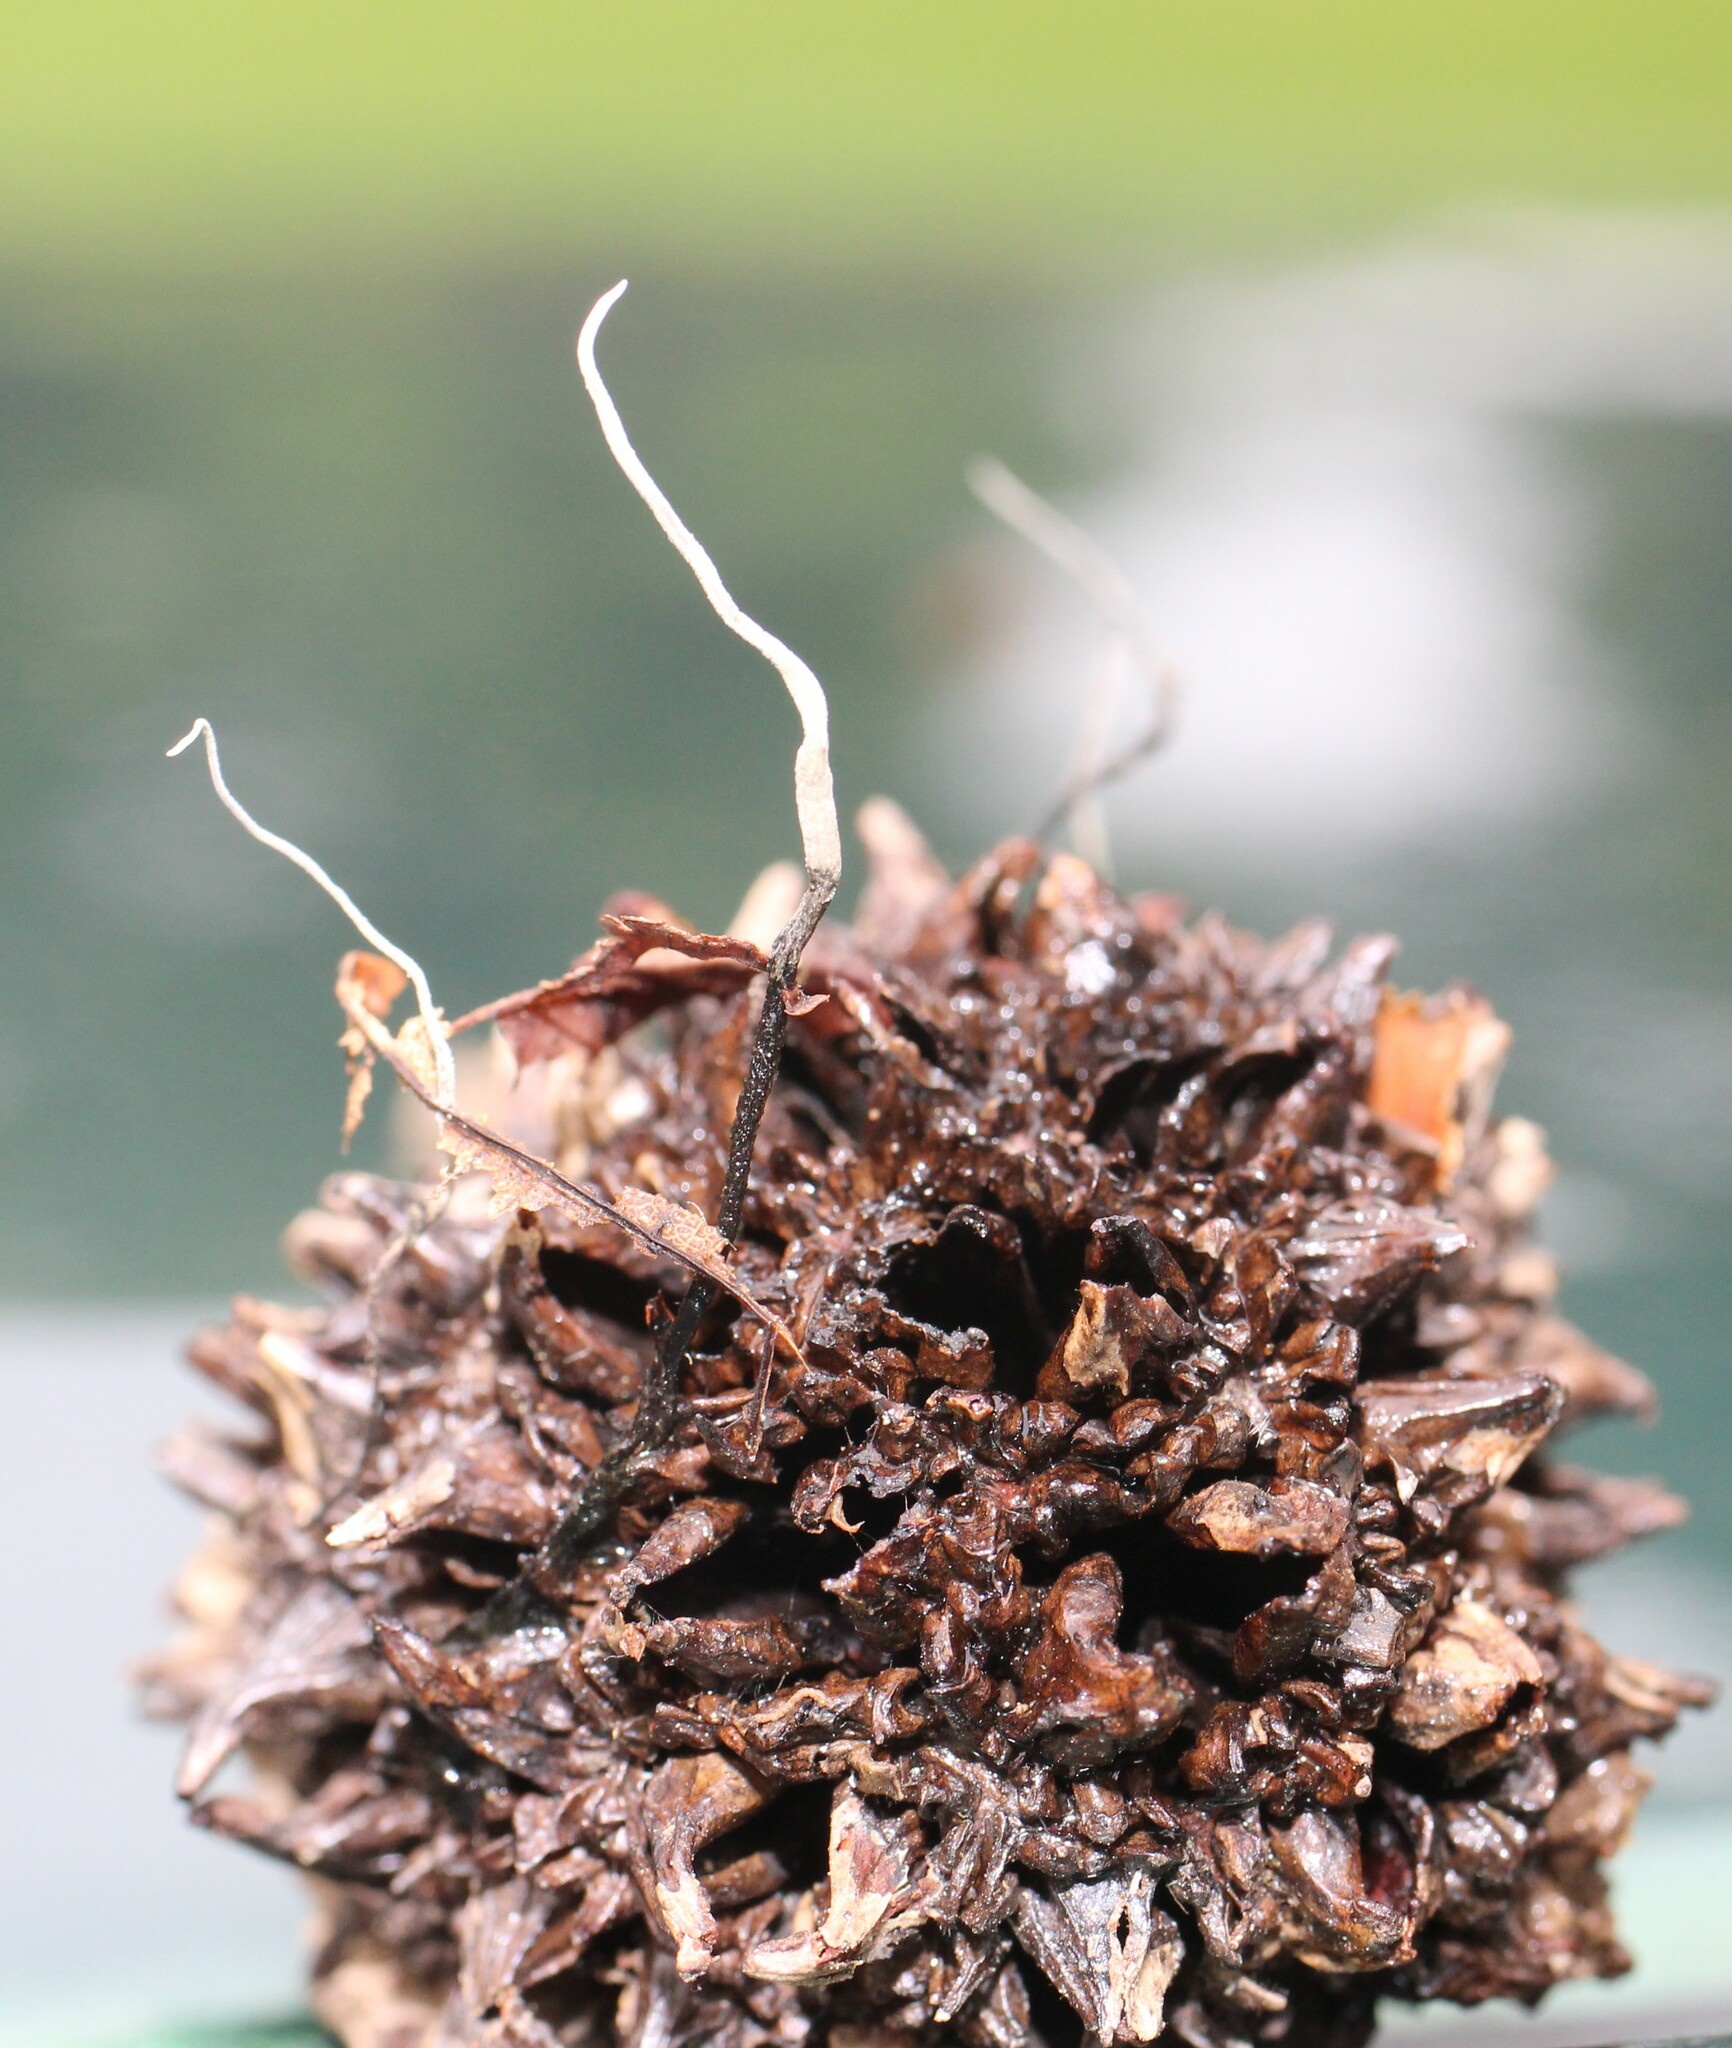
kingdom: Fungi
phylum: Ascomycota
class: Sordariomycetes
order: Xylariales
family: Xylariaceae
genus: Xylaria
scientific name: Xylaria liquidambaris
